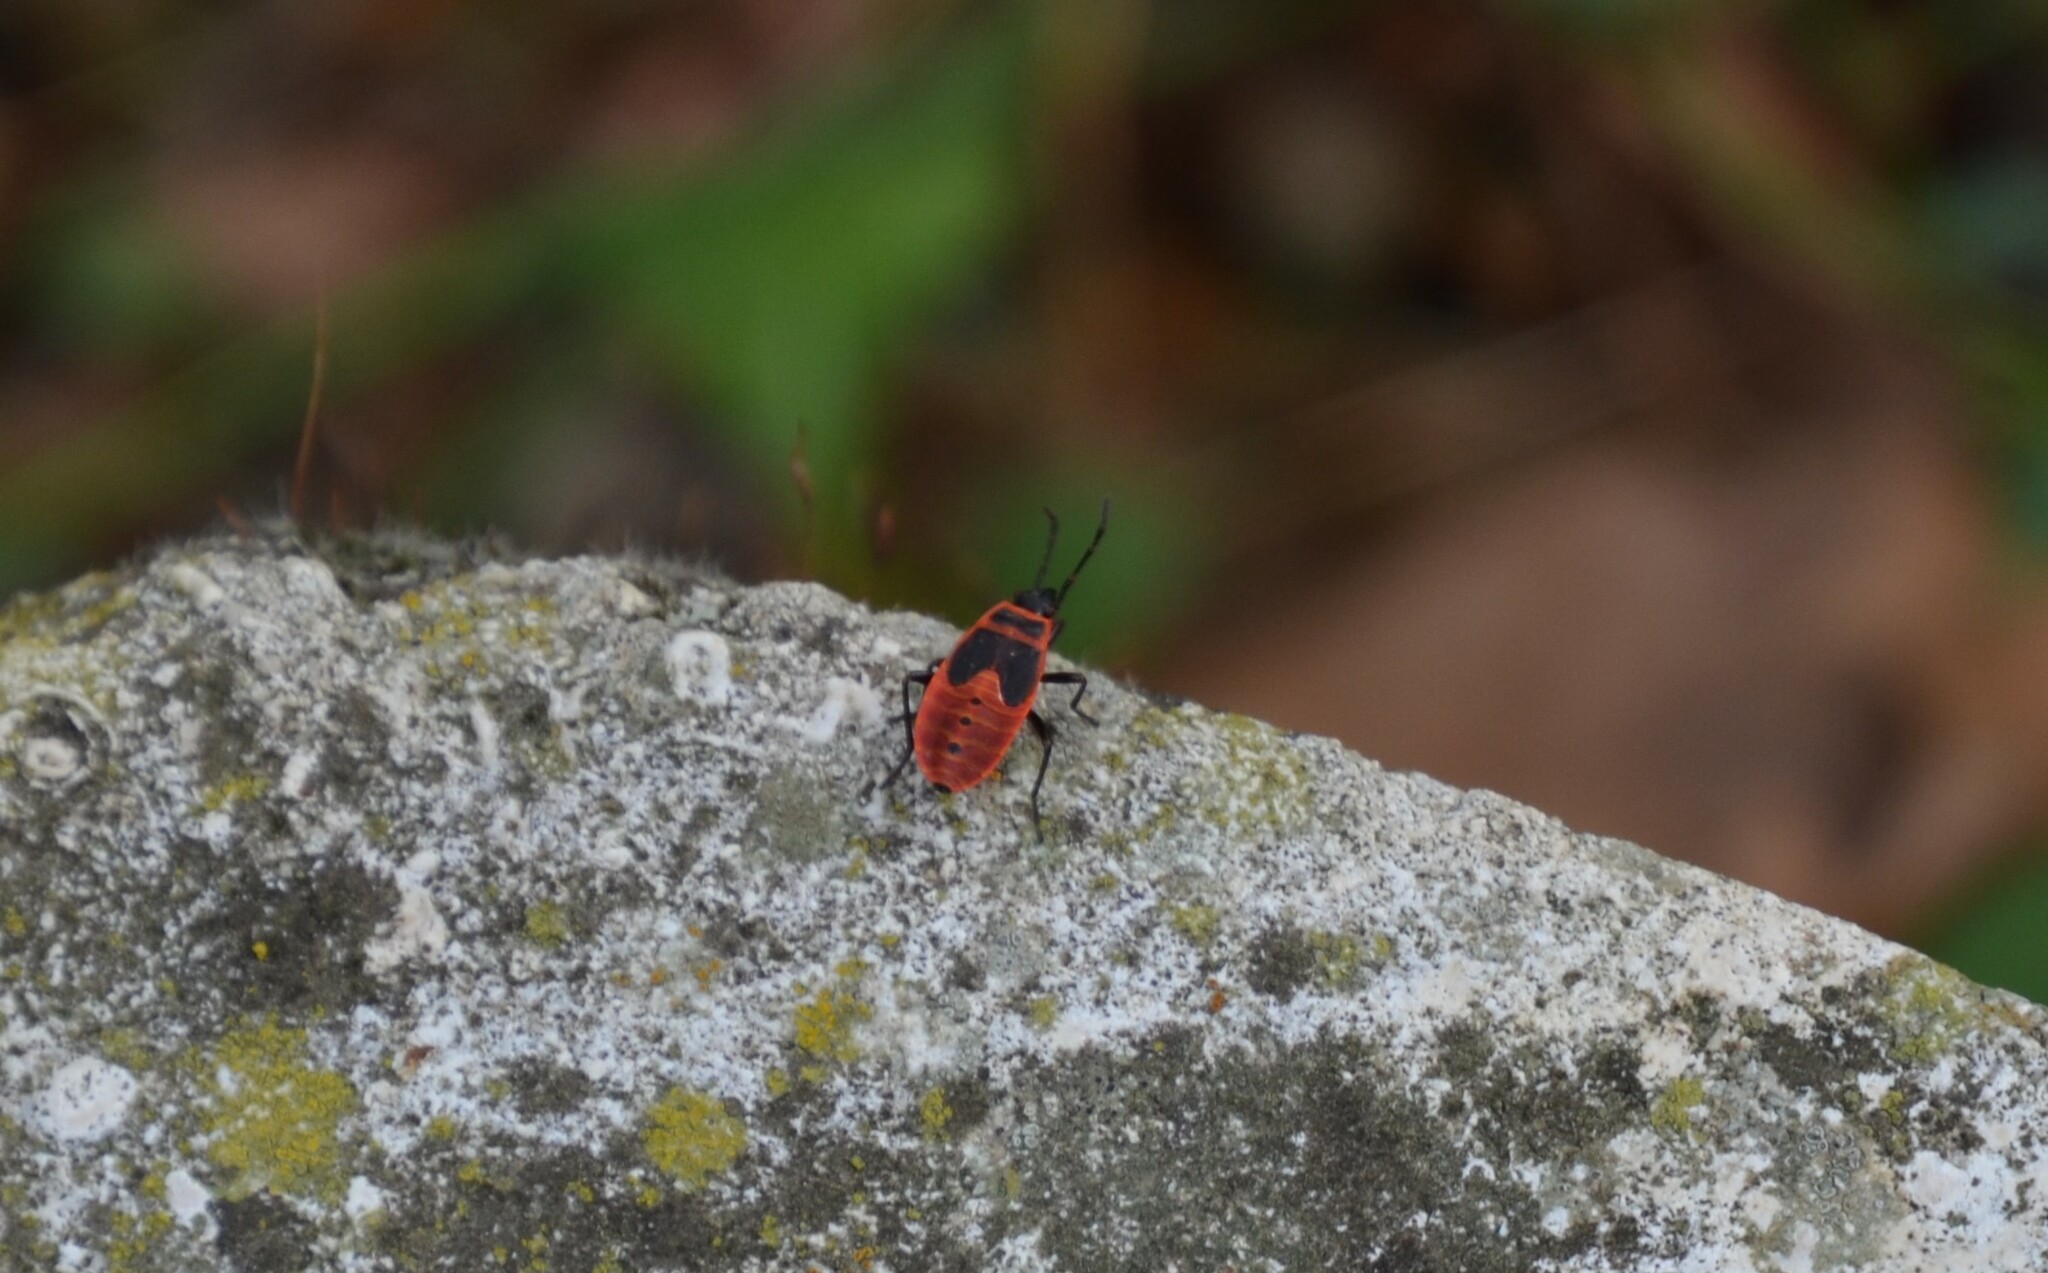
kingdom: Animalia
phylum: Arthropoda
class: Insecta
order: Hemiptera
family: Pyrrhocoridae
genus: Pyrrhocoris
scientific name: Pyrrhocoris apterus
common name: Firebug
